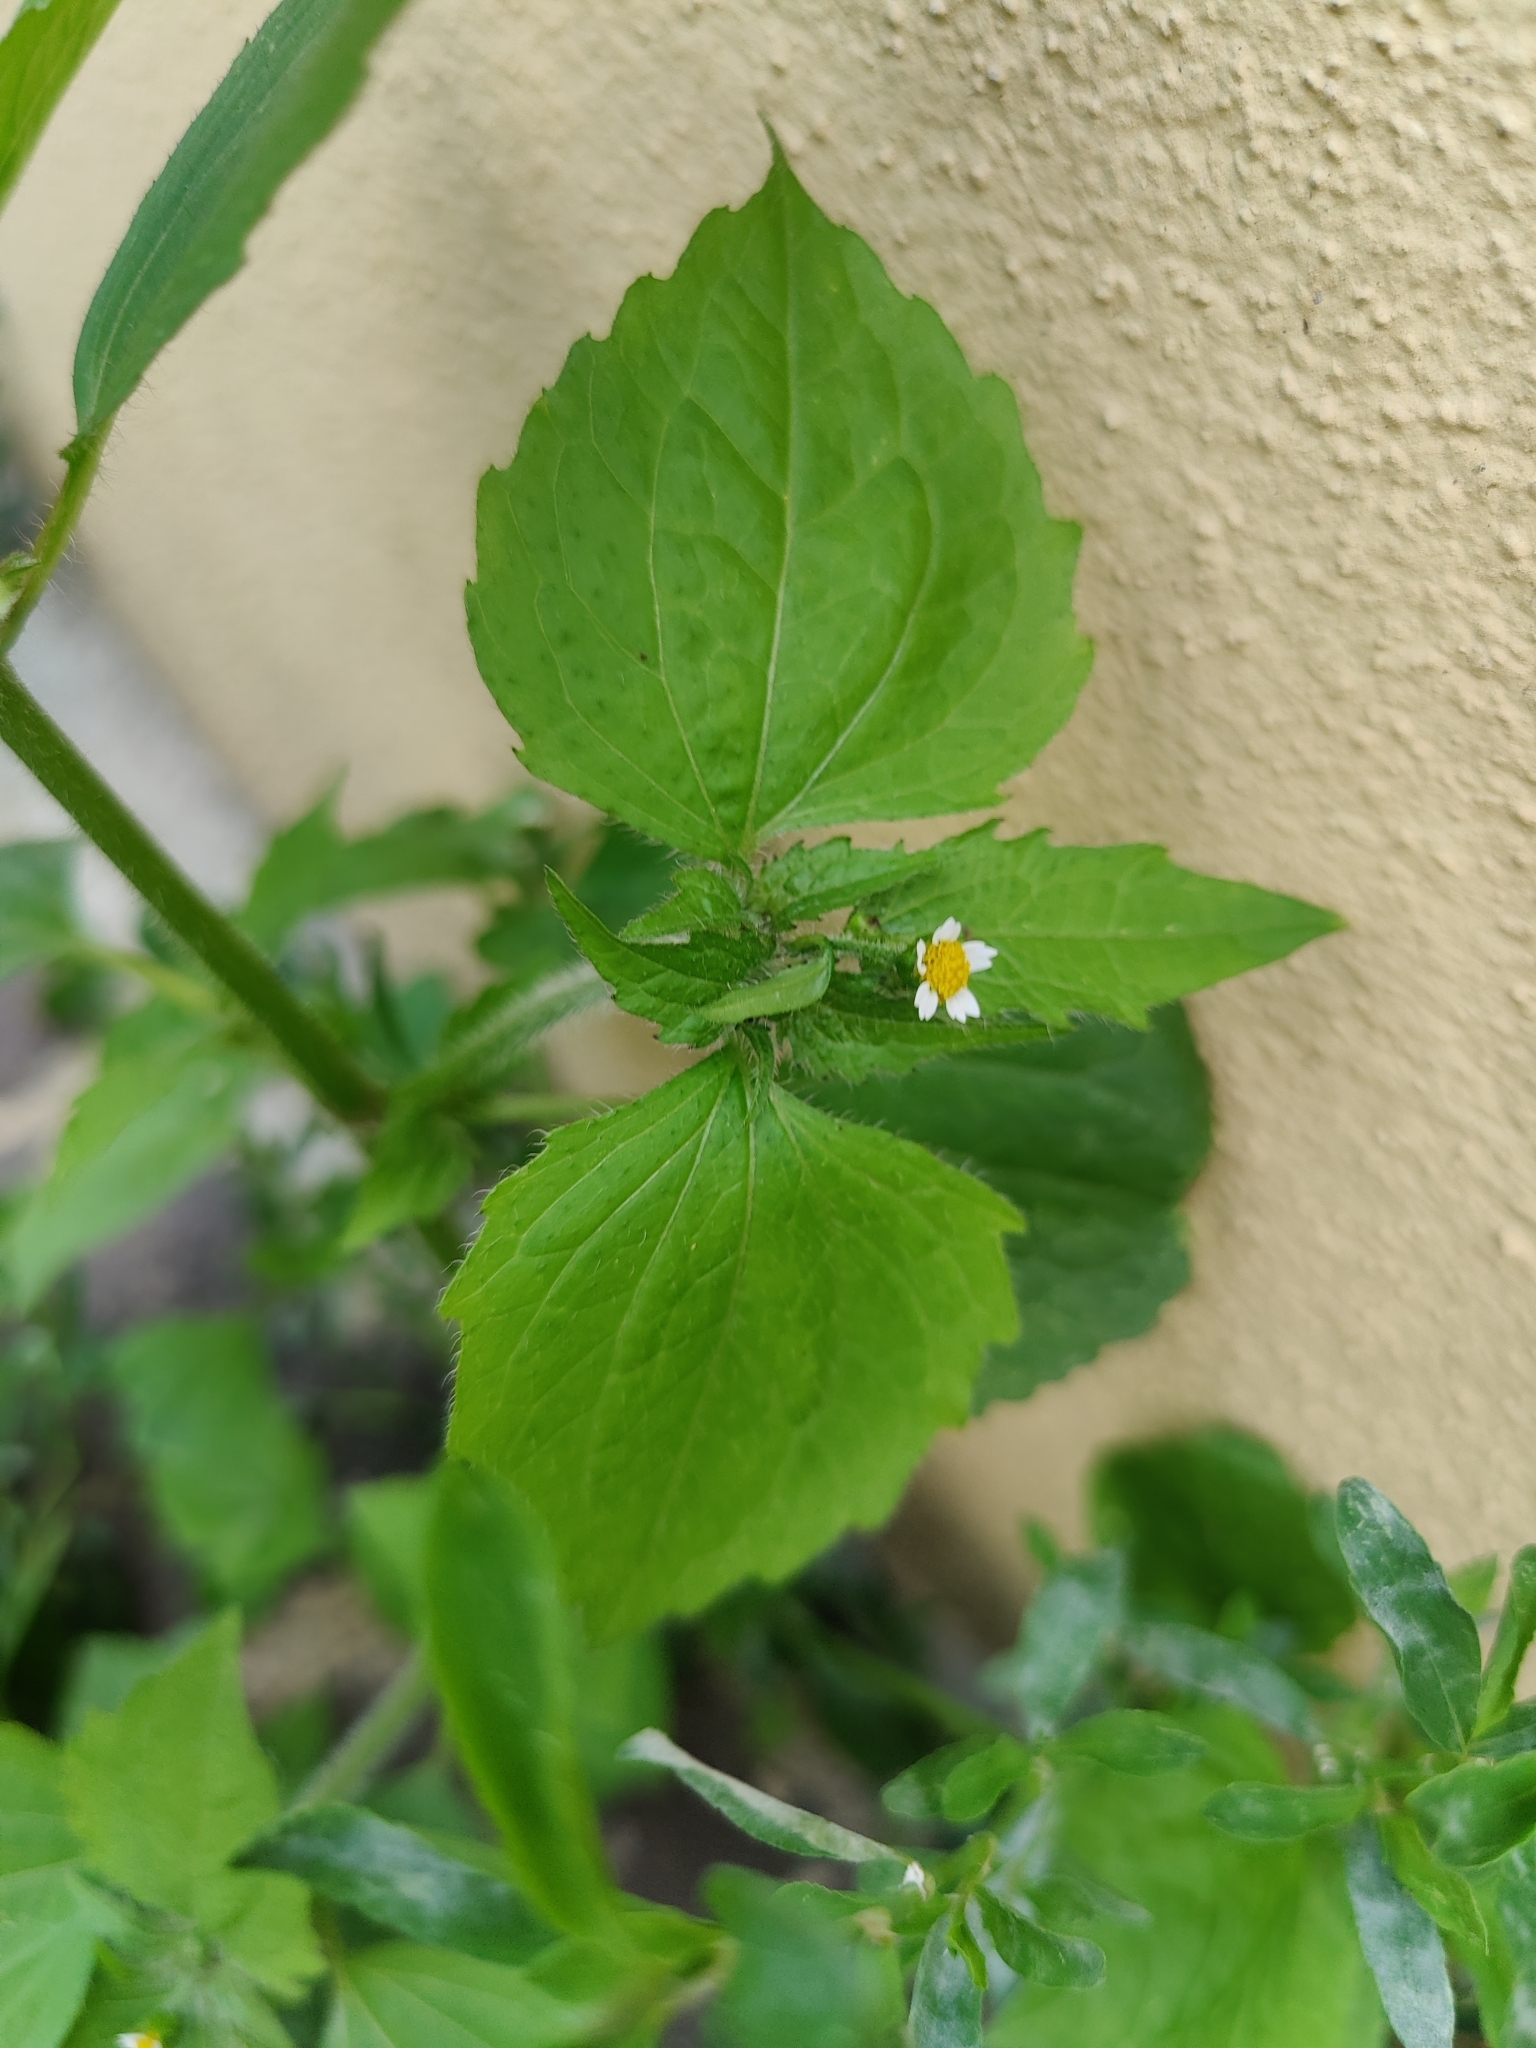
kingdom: Plantae
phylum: Tracheophyta
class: Magnoliopsida
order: Asterales
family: Asteraceae
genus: Galinsoga
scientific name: Galinsoga quadriradiata
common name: Shaggy soldier
